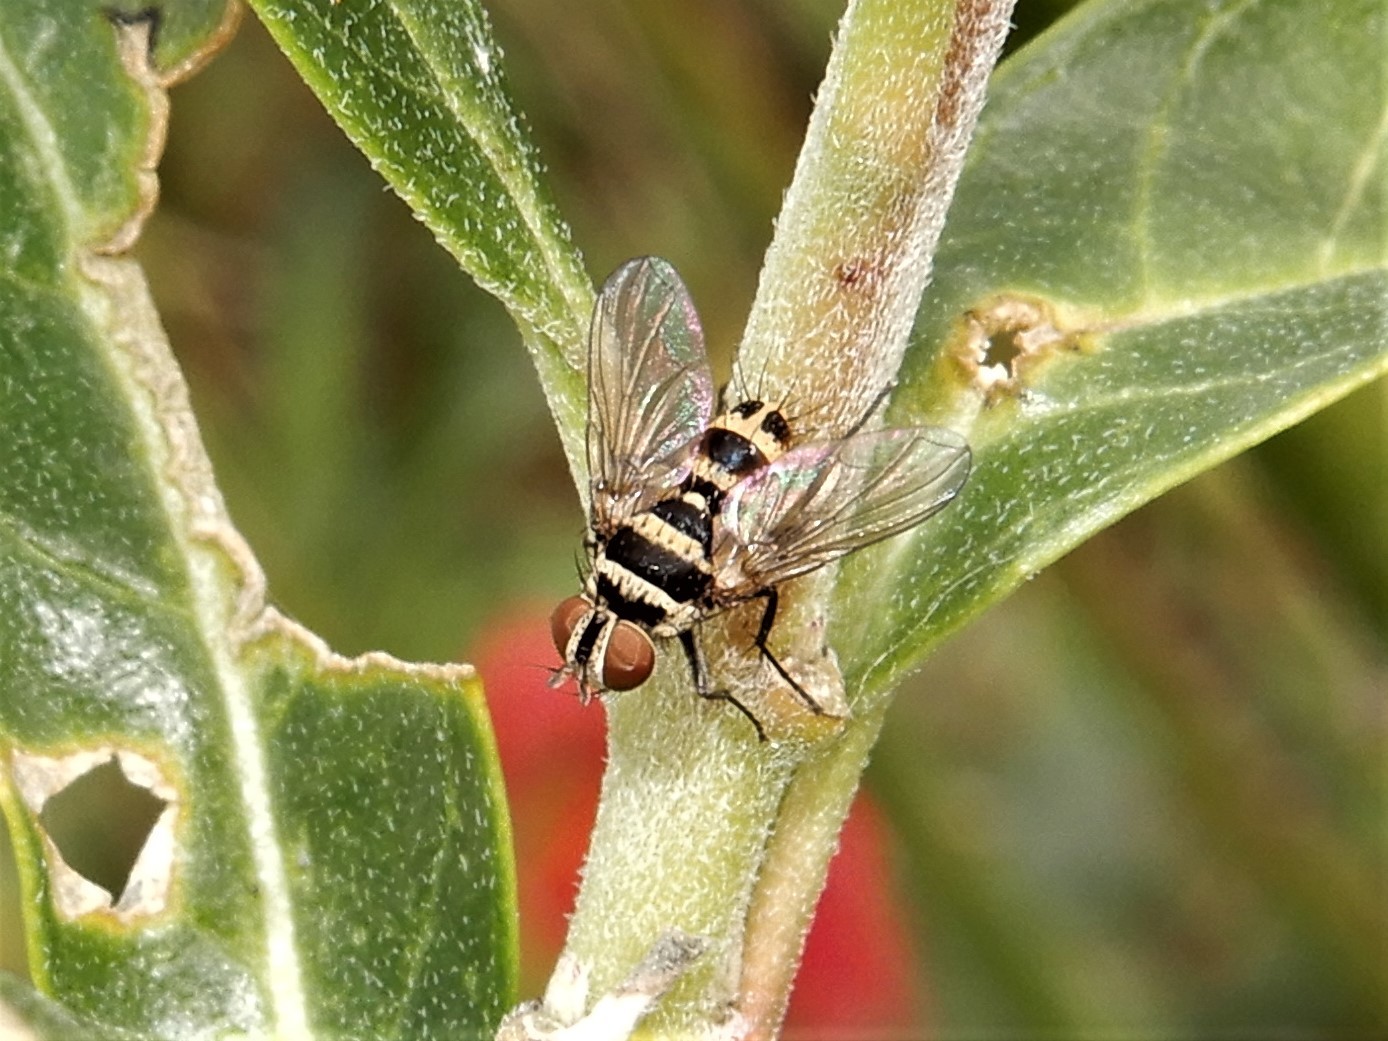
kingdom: Animalia
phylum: Arthropoda
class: Insecta
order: Diptera
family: Tachinidae
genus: Trigonospila
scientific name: Trigonospila brevifacies
